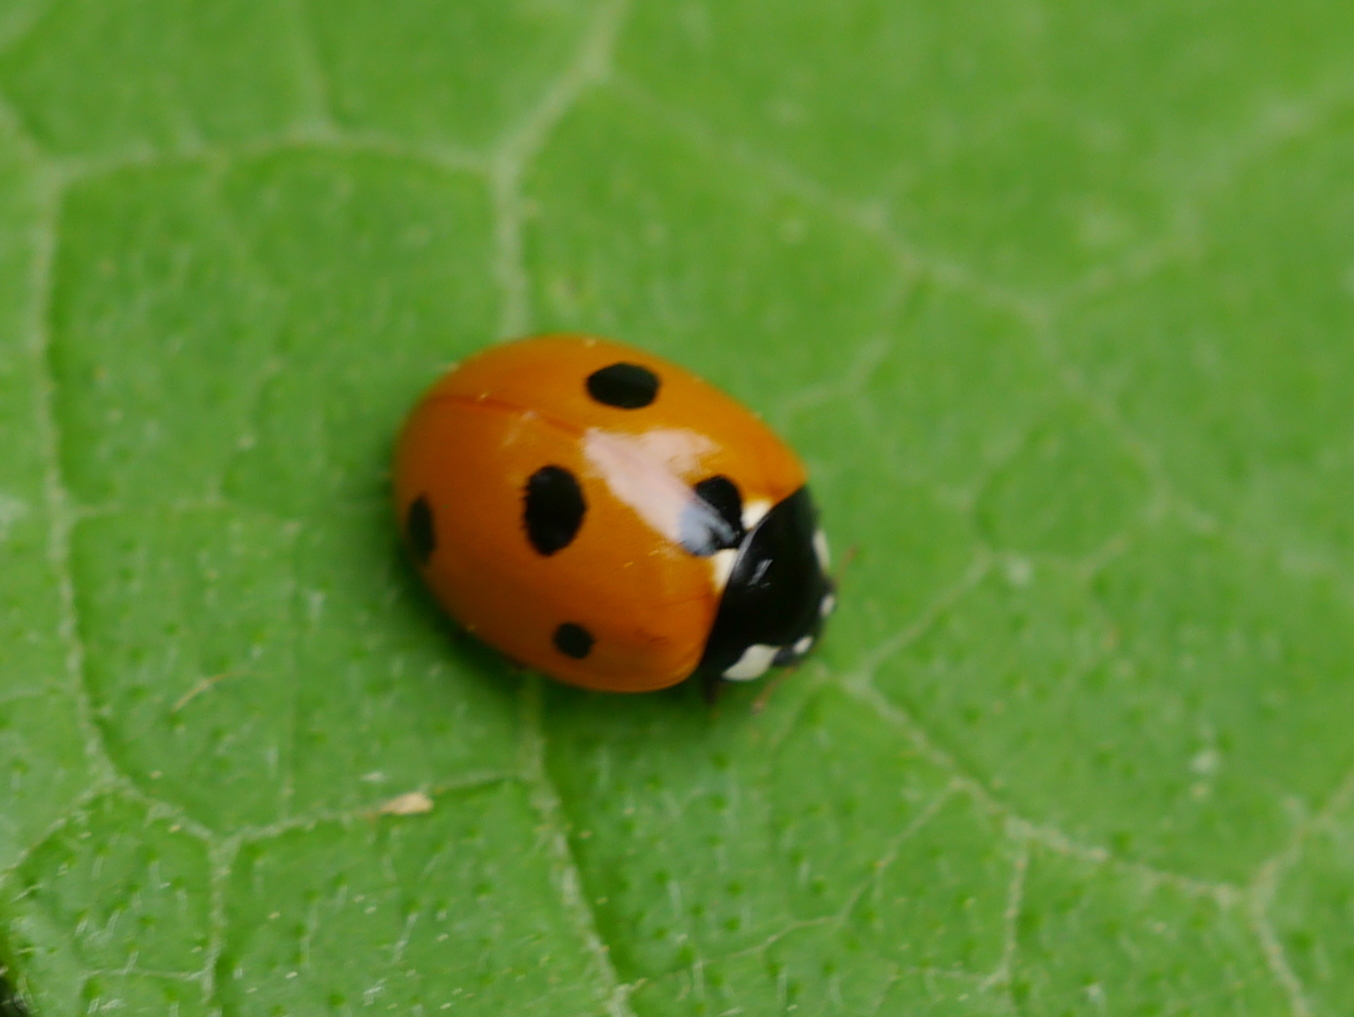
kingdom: Animalia
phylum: Arthropoda
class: Insecta
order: Coleoptera
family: Coccinellidae
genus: Coccinella
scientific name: Coccinella septempunctata
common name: Sevenspotted lady beetle
